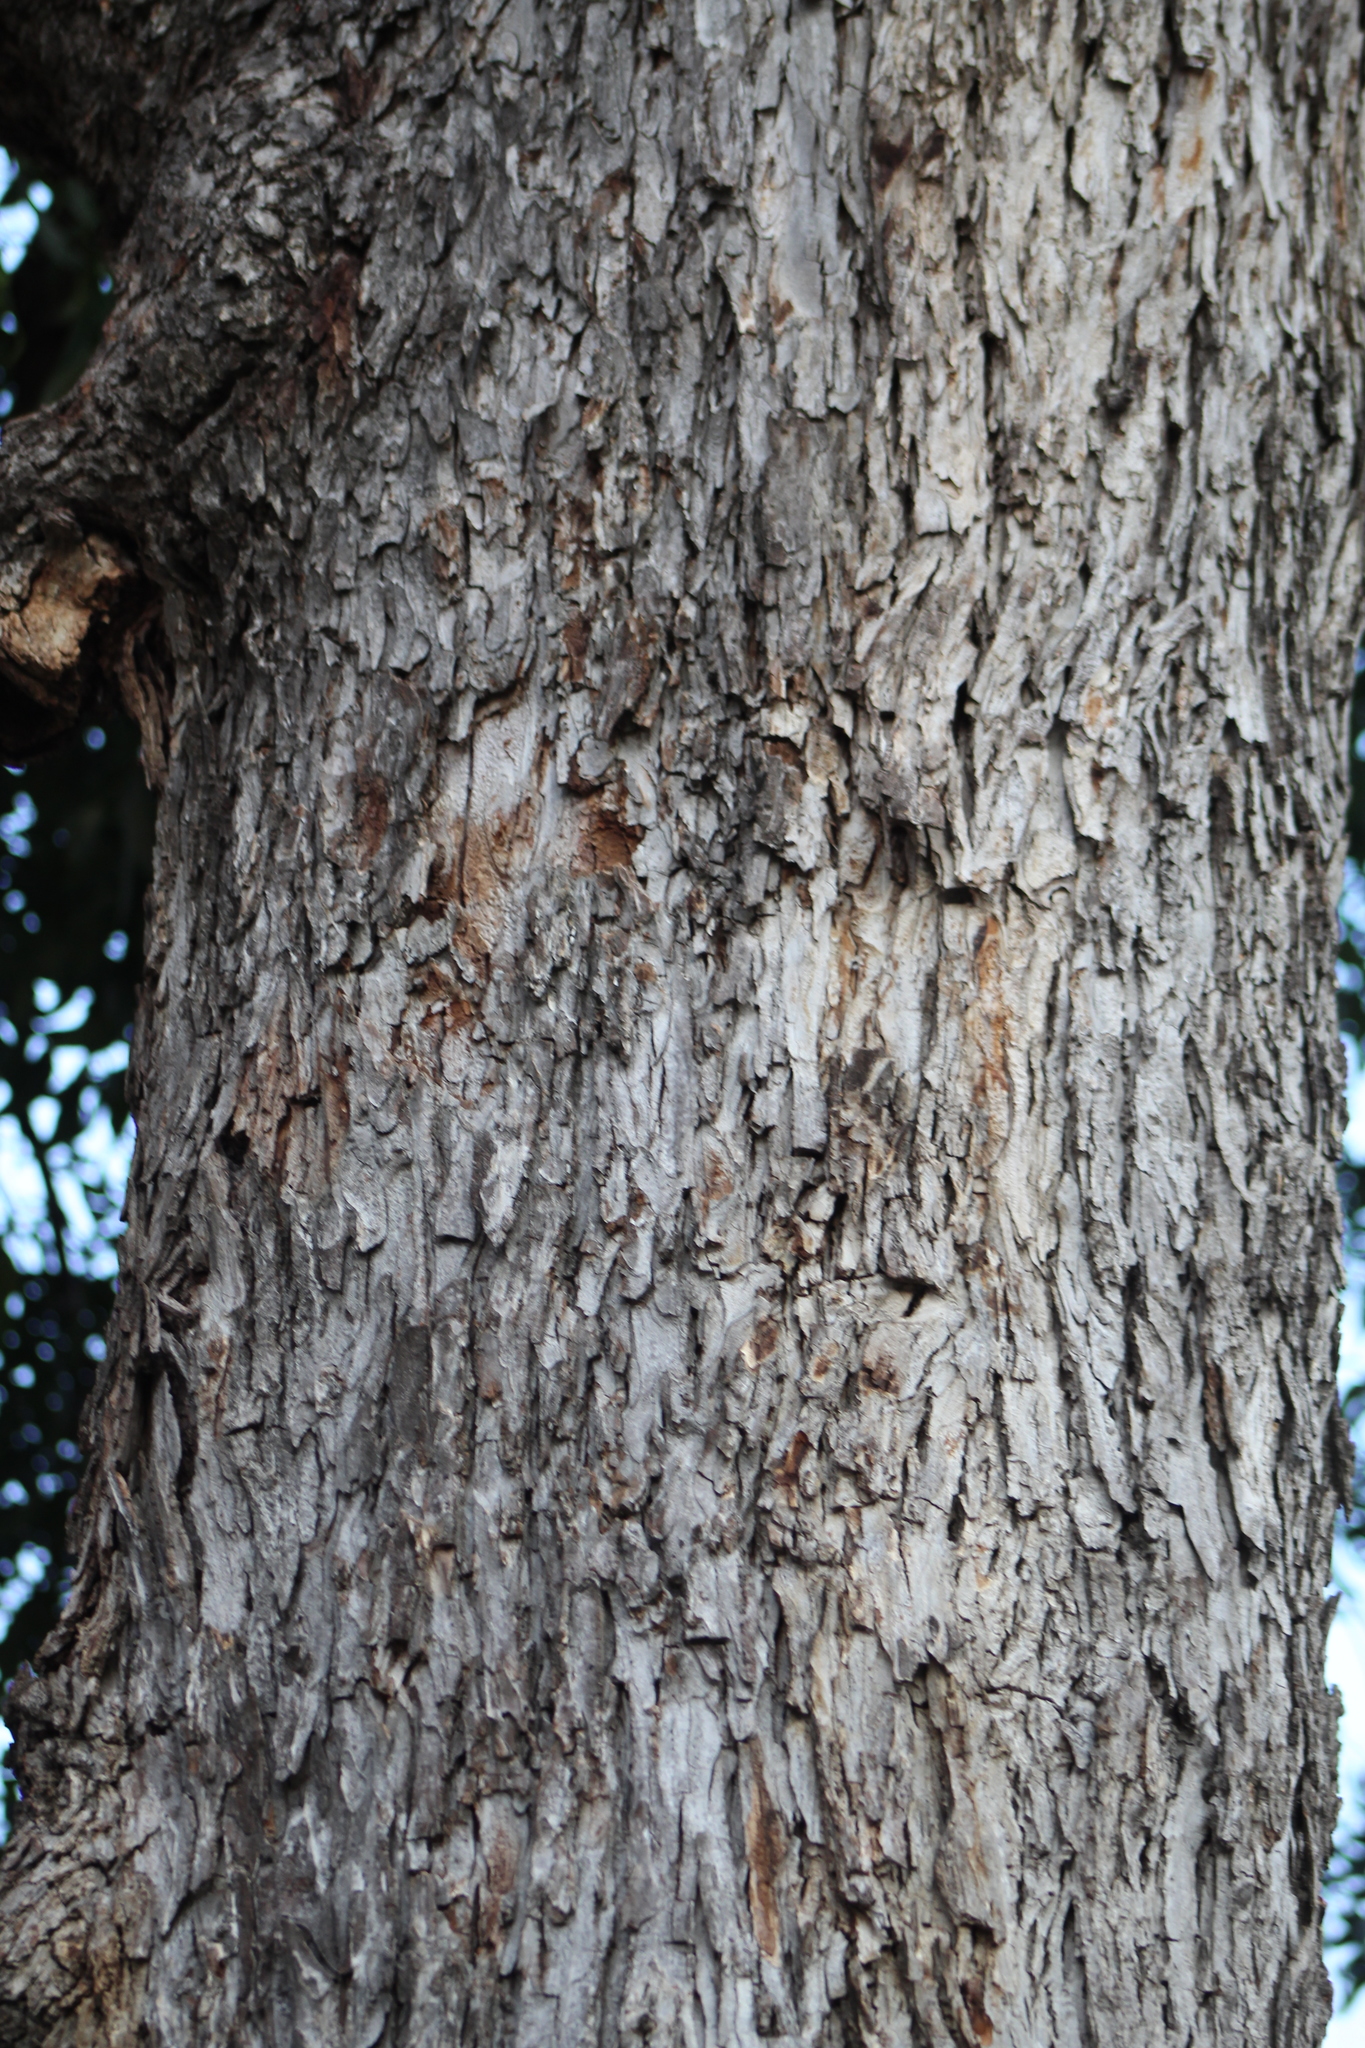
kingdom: Plantae
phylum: Tracheophyta
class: Magnoliopsida
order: Fagales
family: Juglandaceae
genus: Carya
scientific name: Carya illinoinensis
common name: Pecan
